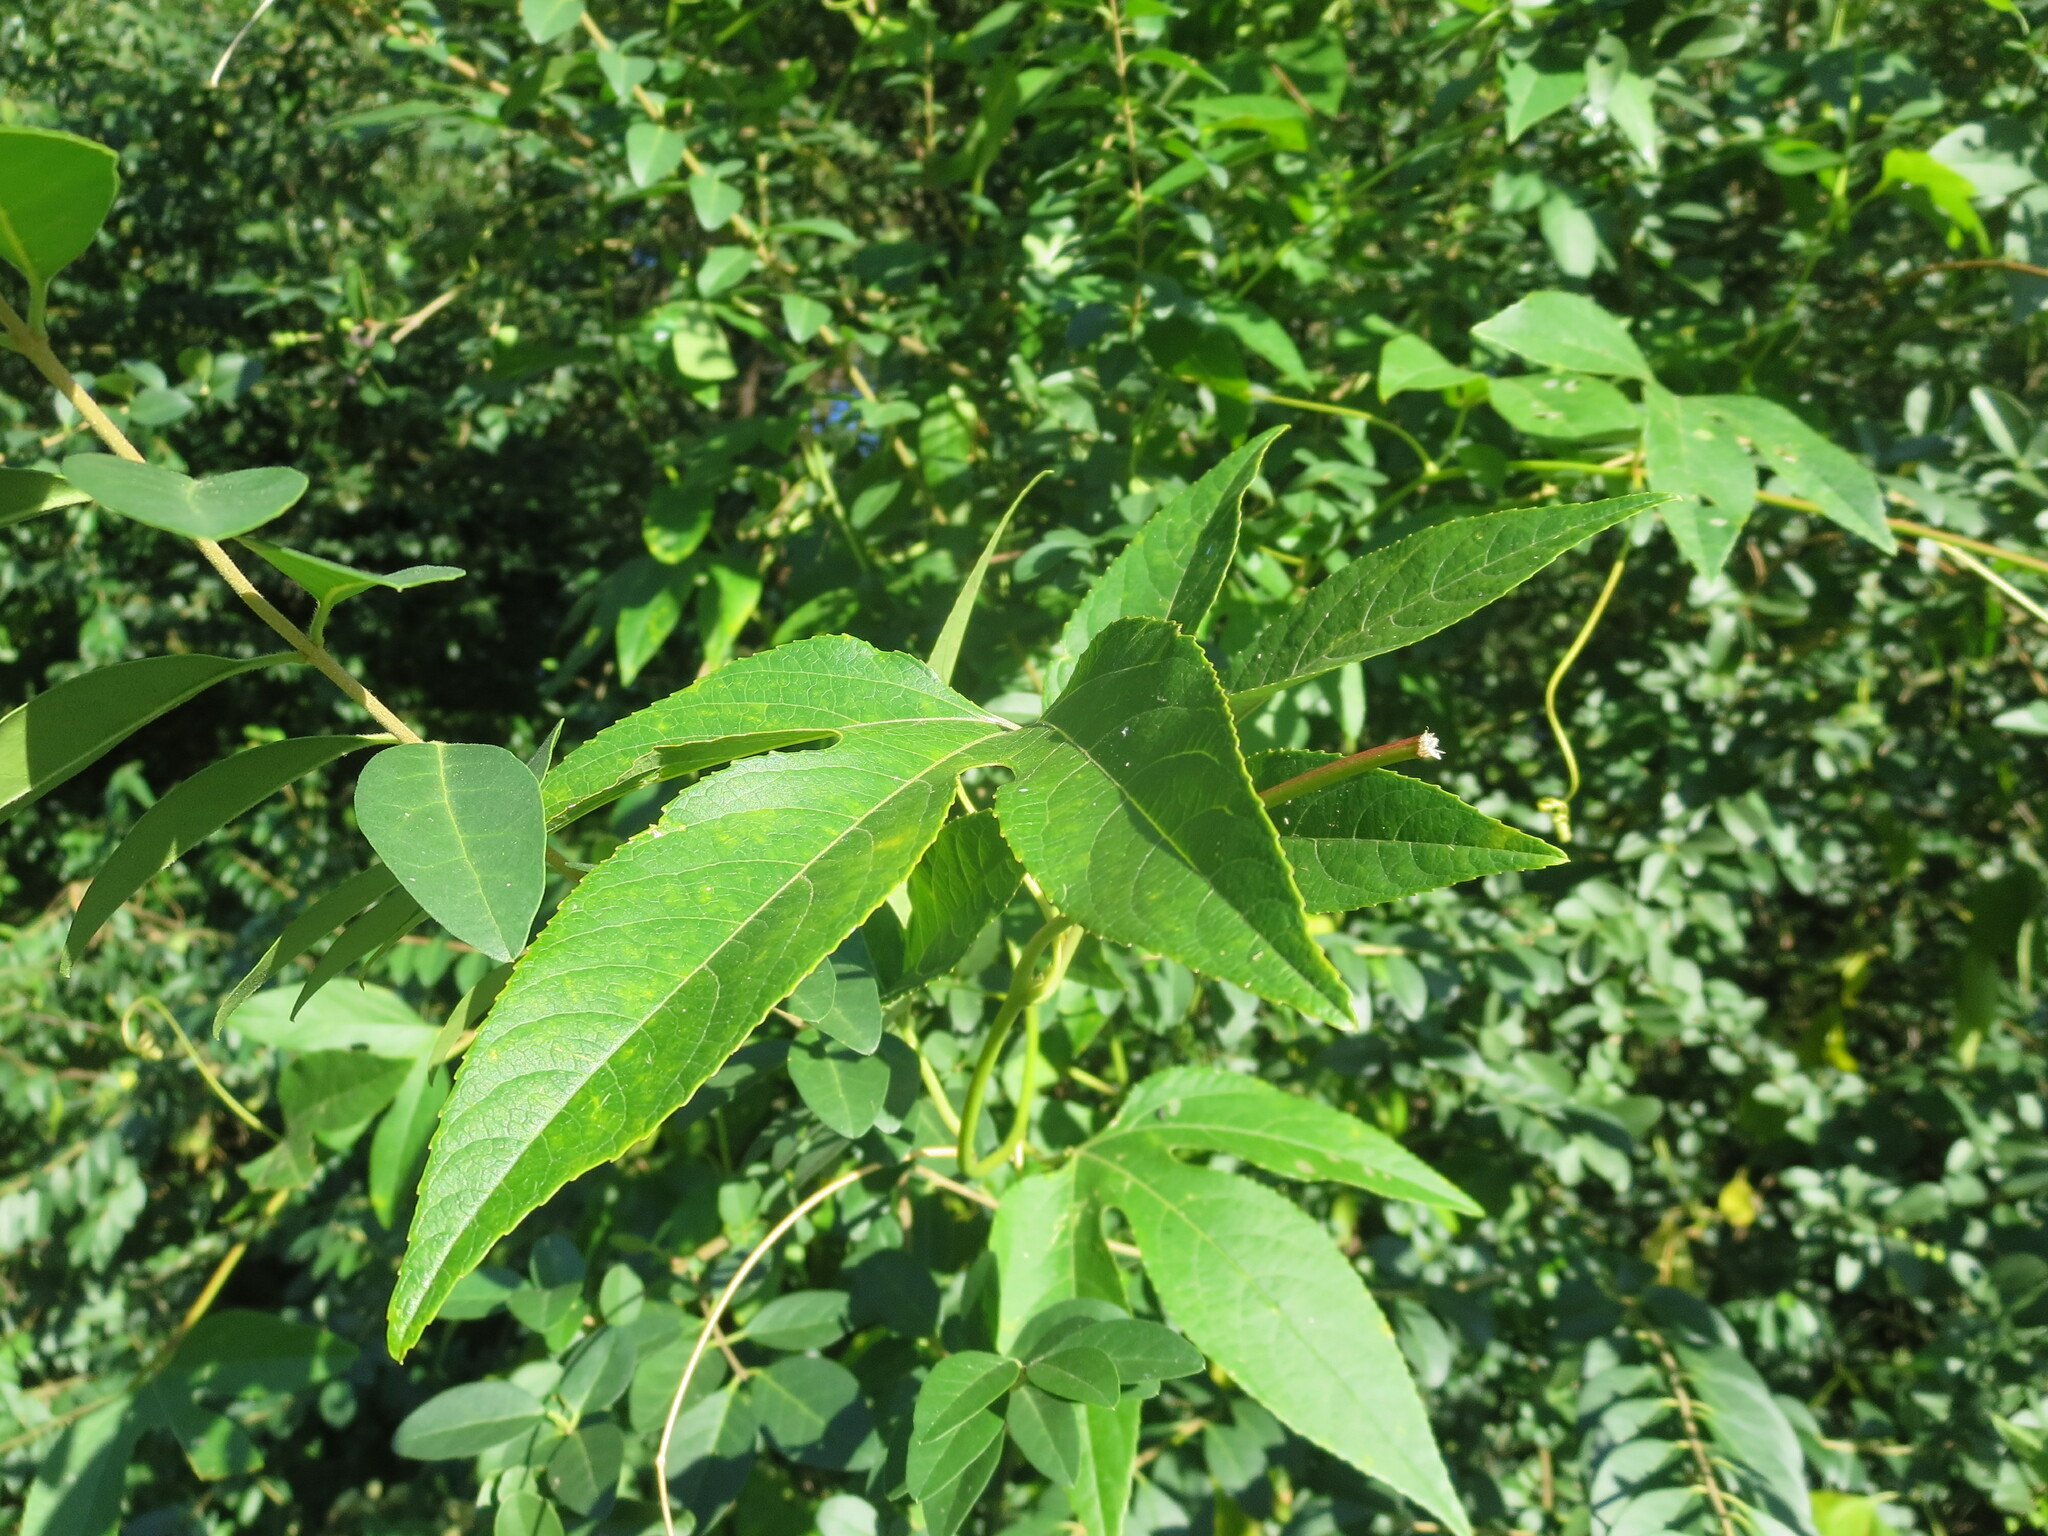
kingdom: Plantae
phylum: Tracheophyta
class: Magnoliopsida
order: Malpighiales
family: Passifloraceae
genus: Passiflora
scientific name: Passiflora incarnata
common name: Apricot-vine
